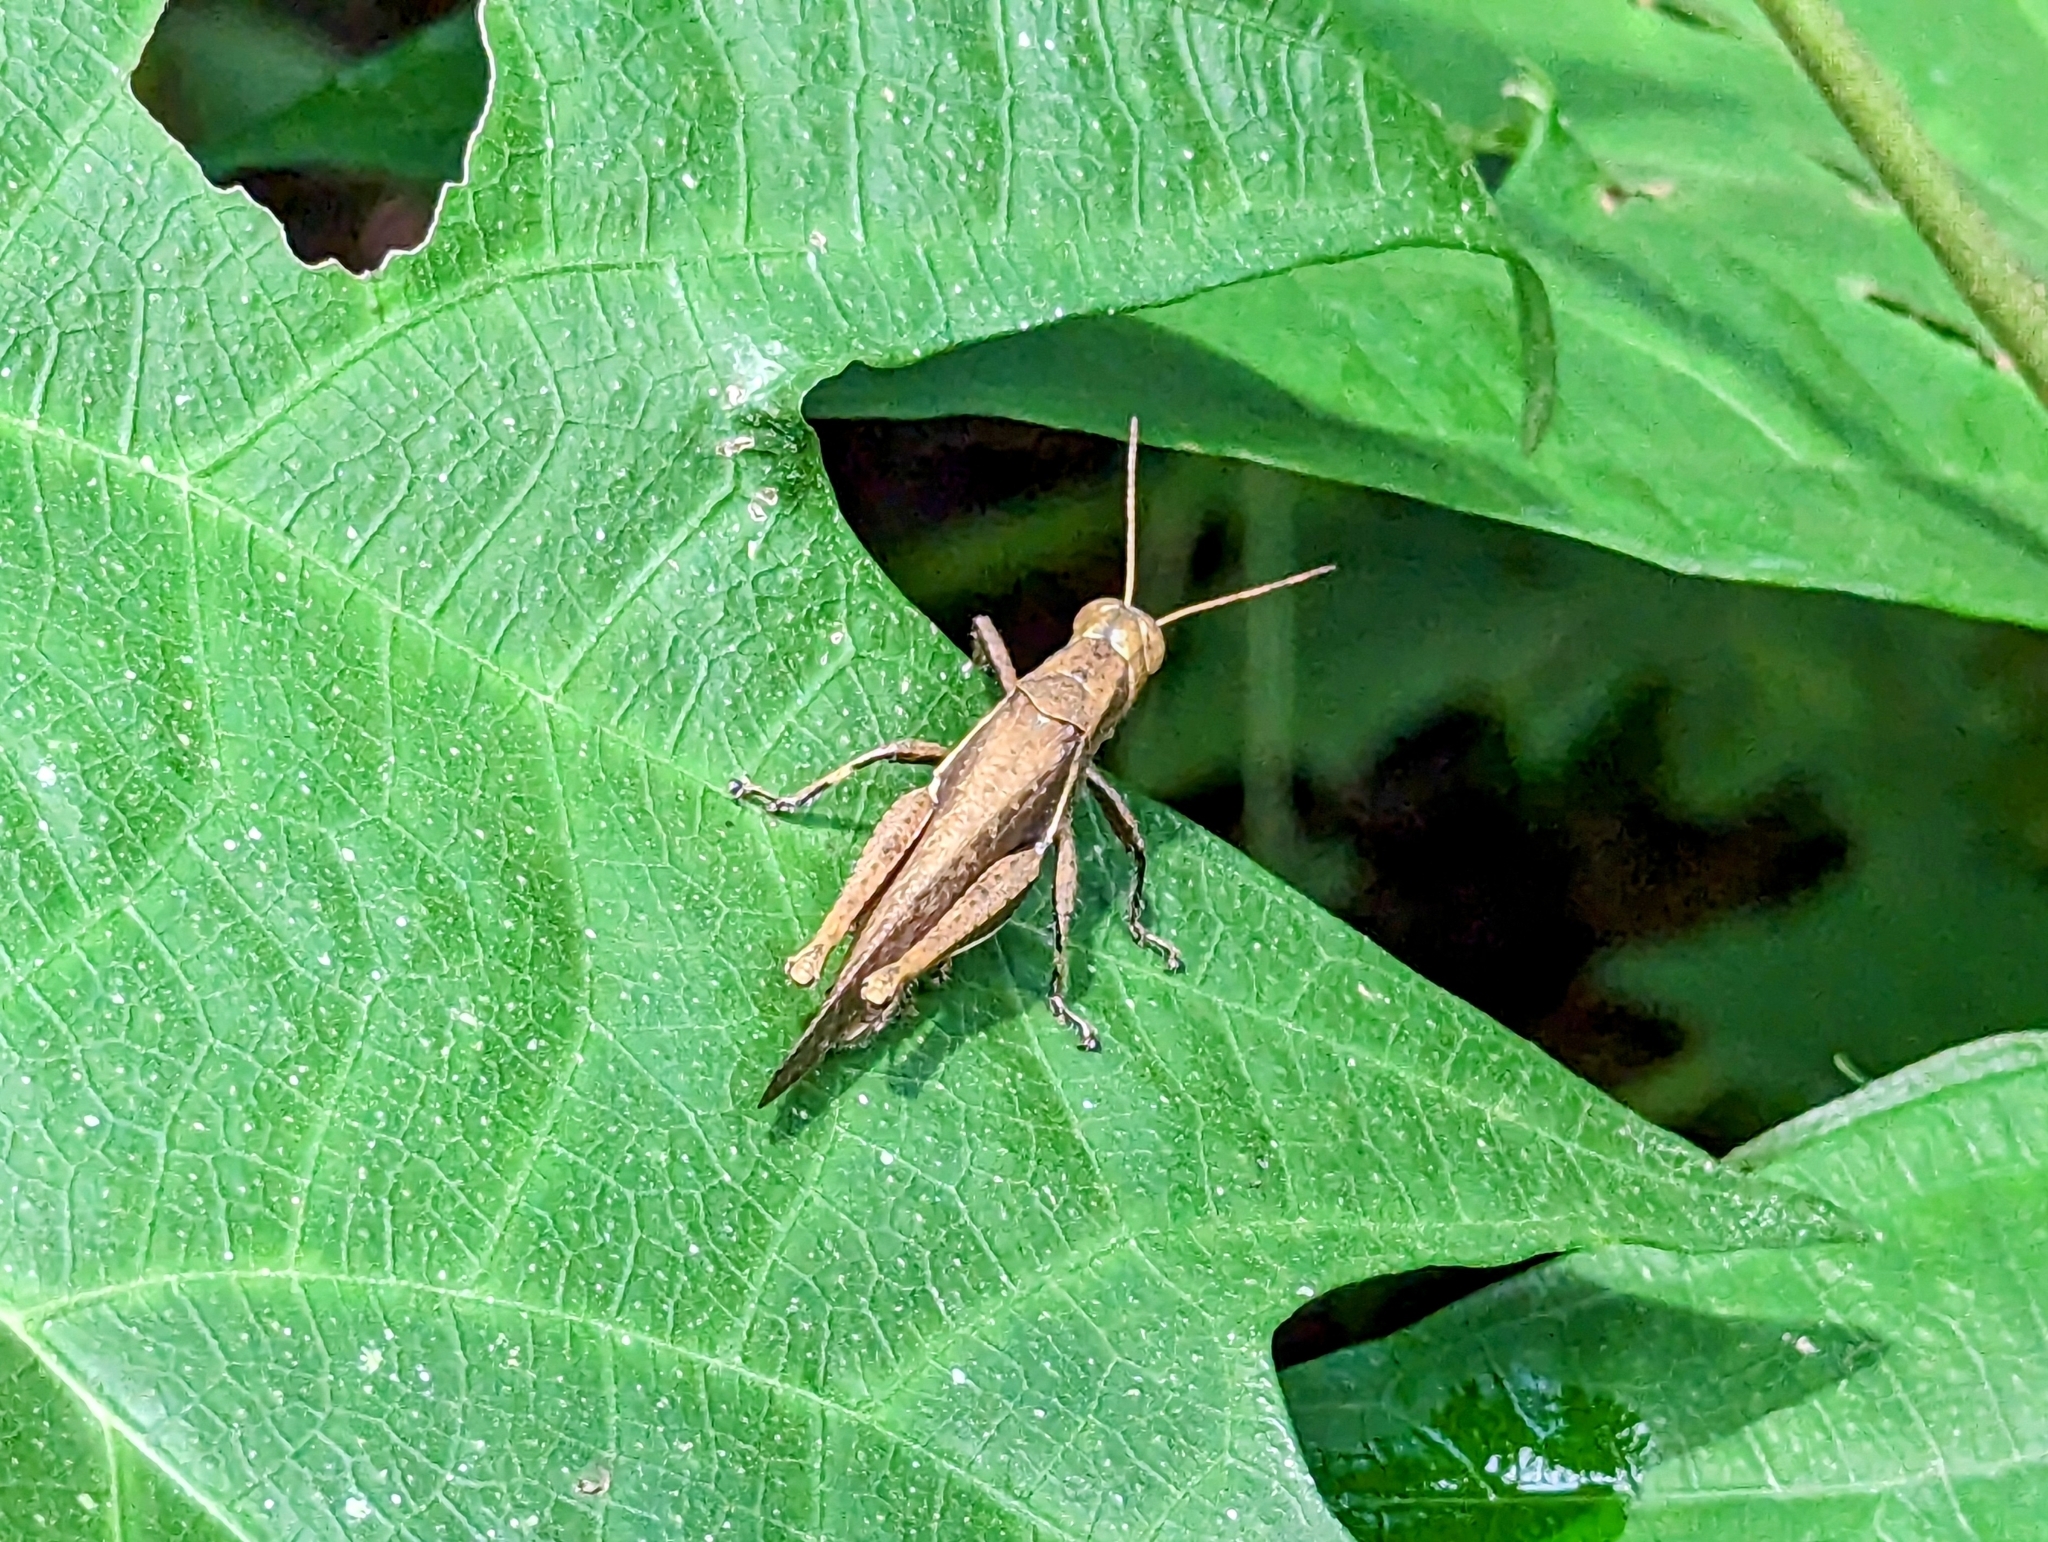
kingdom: Animalia
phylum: Arthropoda
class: Insecta
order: Orthoptera
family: Acrididae
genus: Abracris
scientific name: Abracris flavolineata
